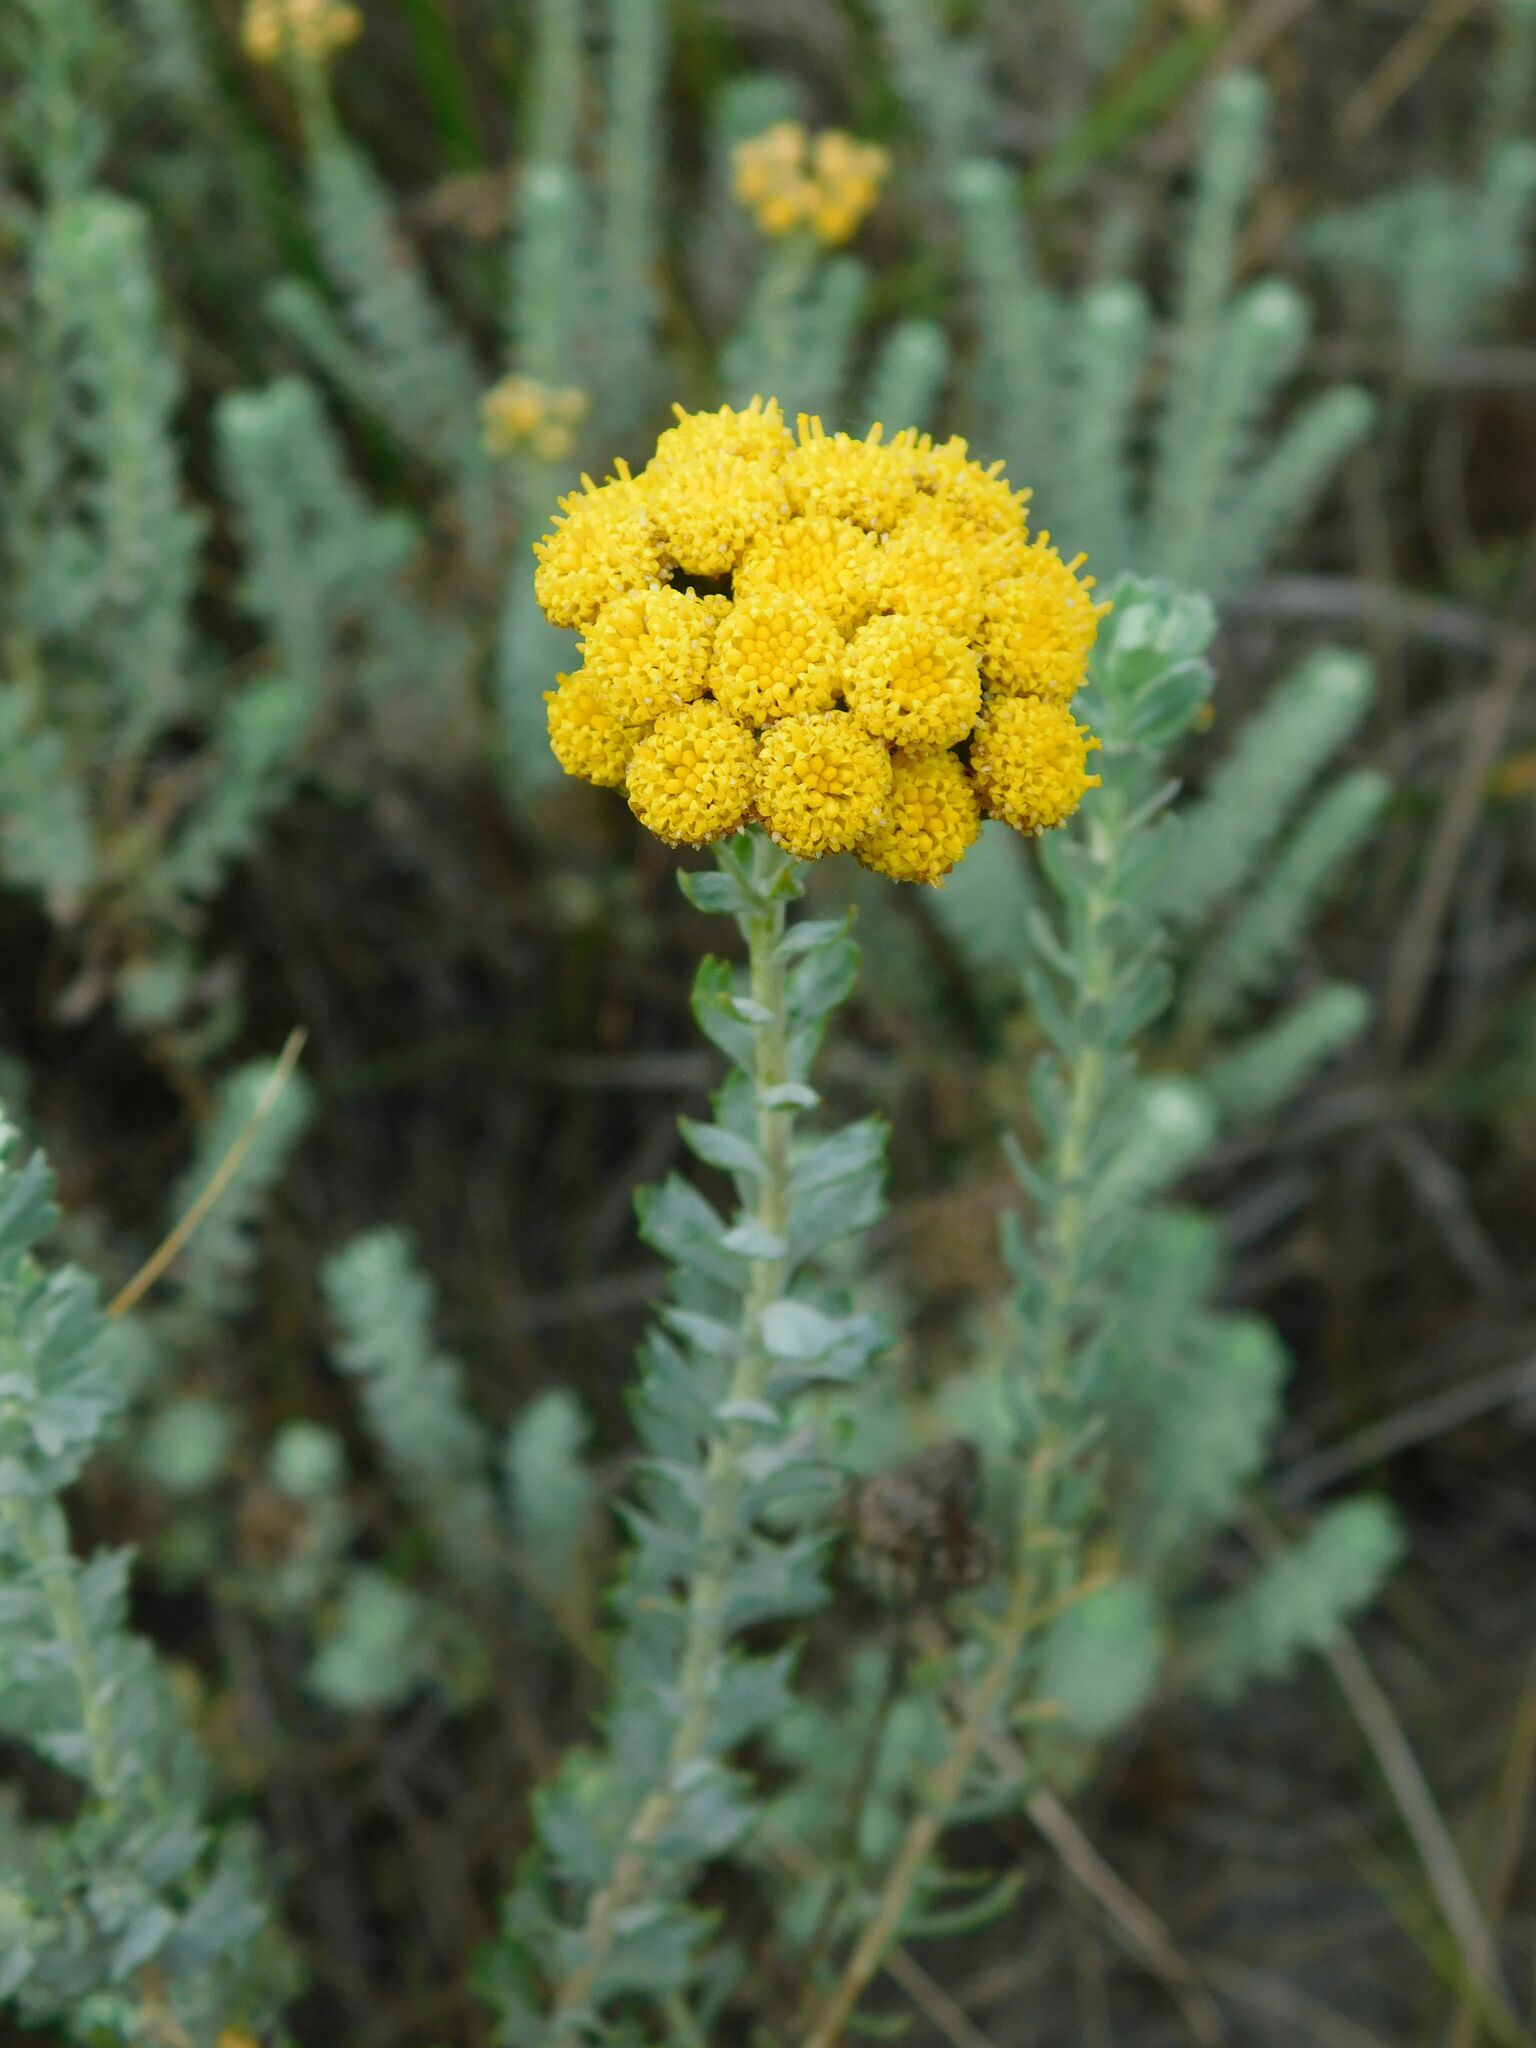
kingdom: Plantae
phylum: Tracheophyta
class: Magnoliopsida
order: Asterales
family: Asteraceae
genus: Athanasia
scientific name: Athanasia trifurcata
